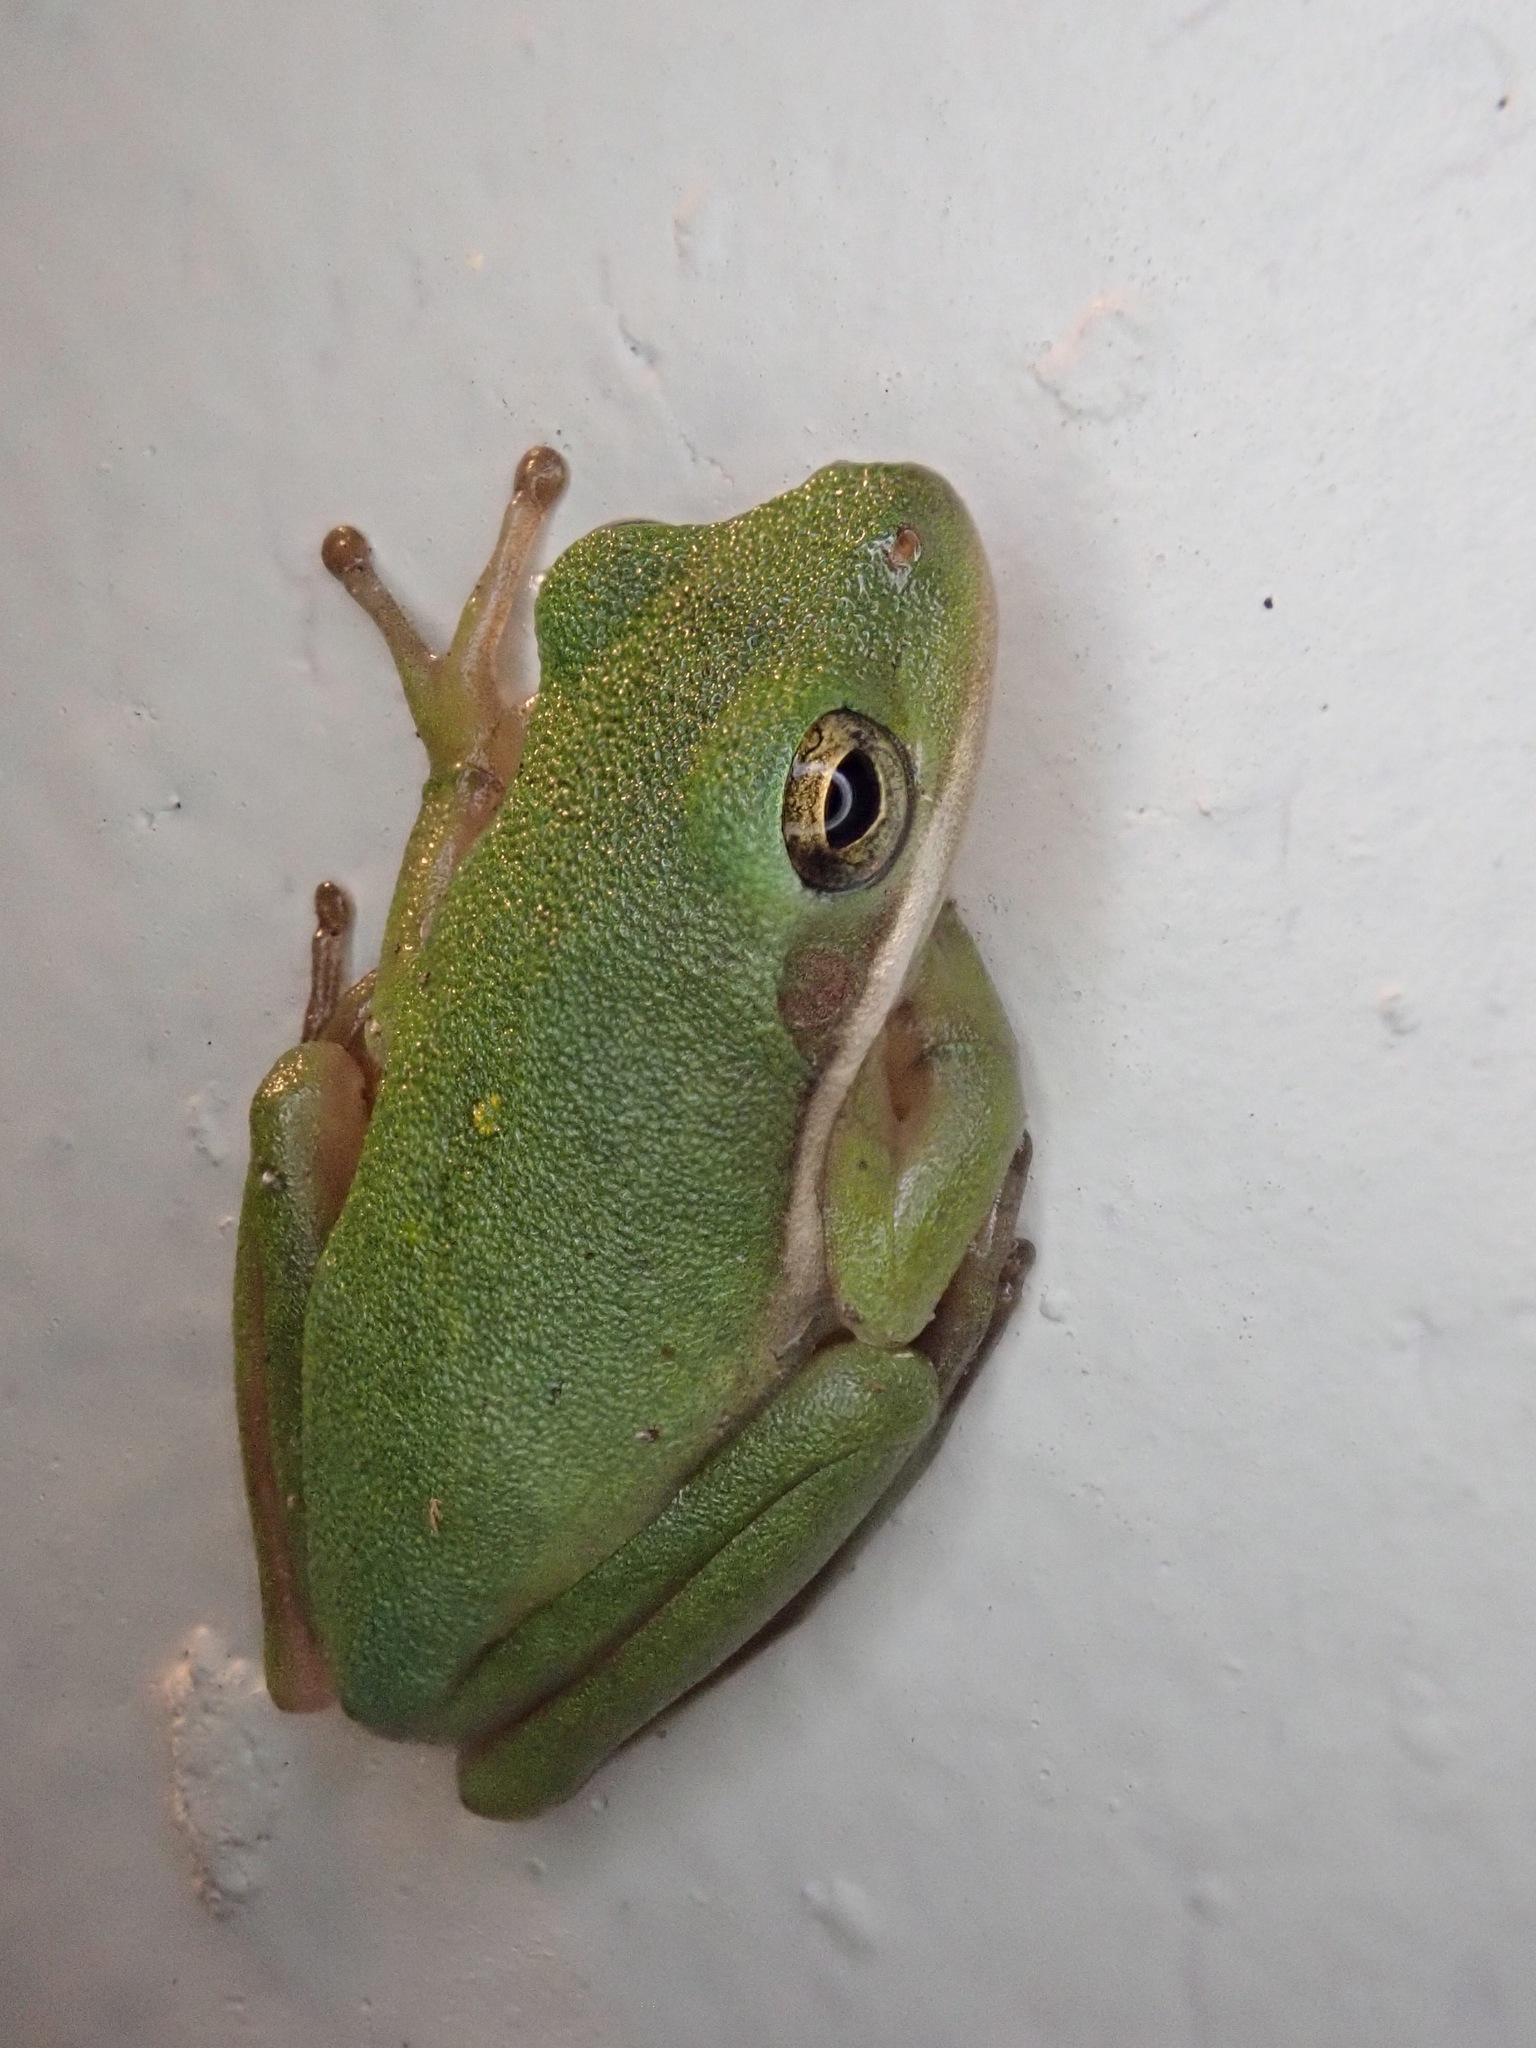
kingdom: Animalia
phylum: Chordata
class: Amphibia
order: Anura
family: Hylidae
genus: Dryophytes
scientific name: Dryophytes cinereus
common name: Green treefrog
